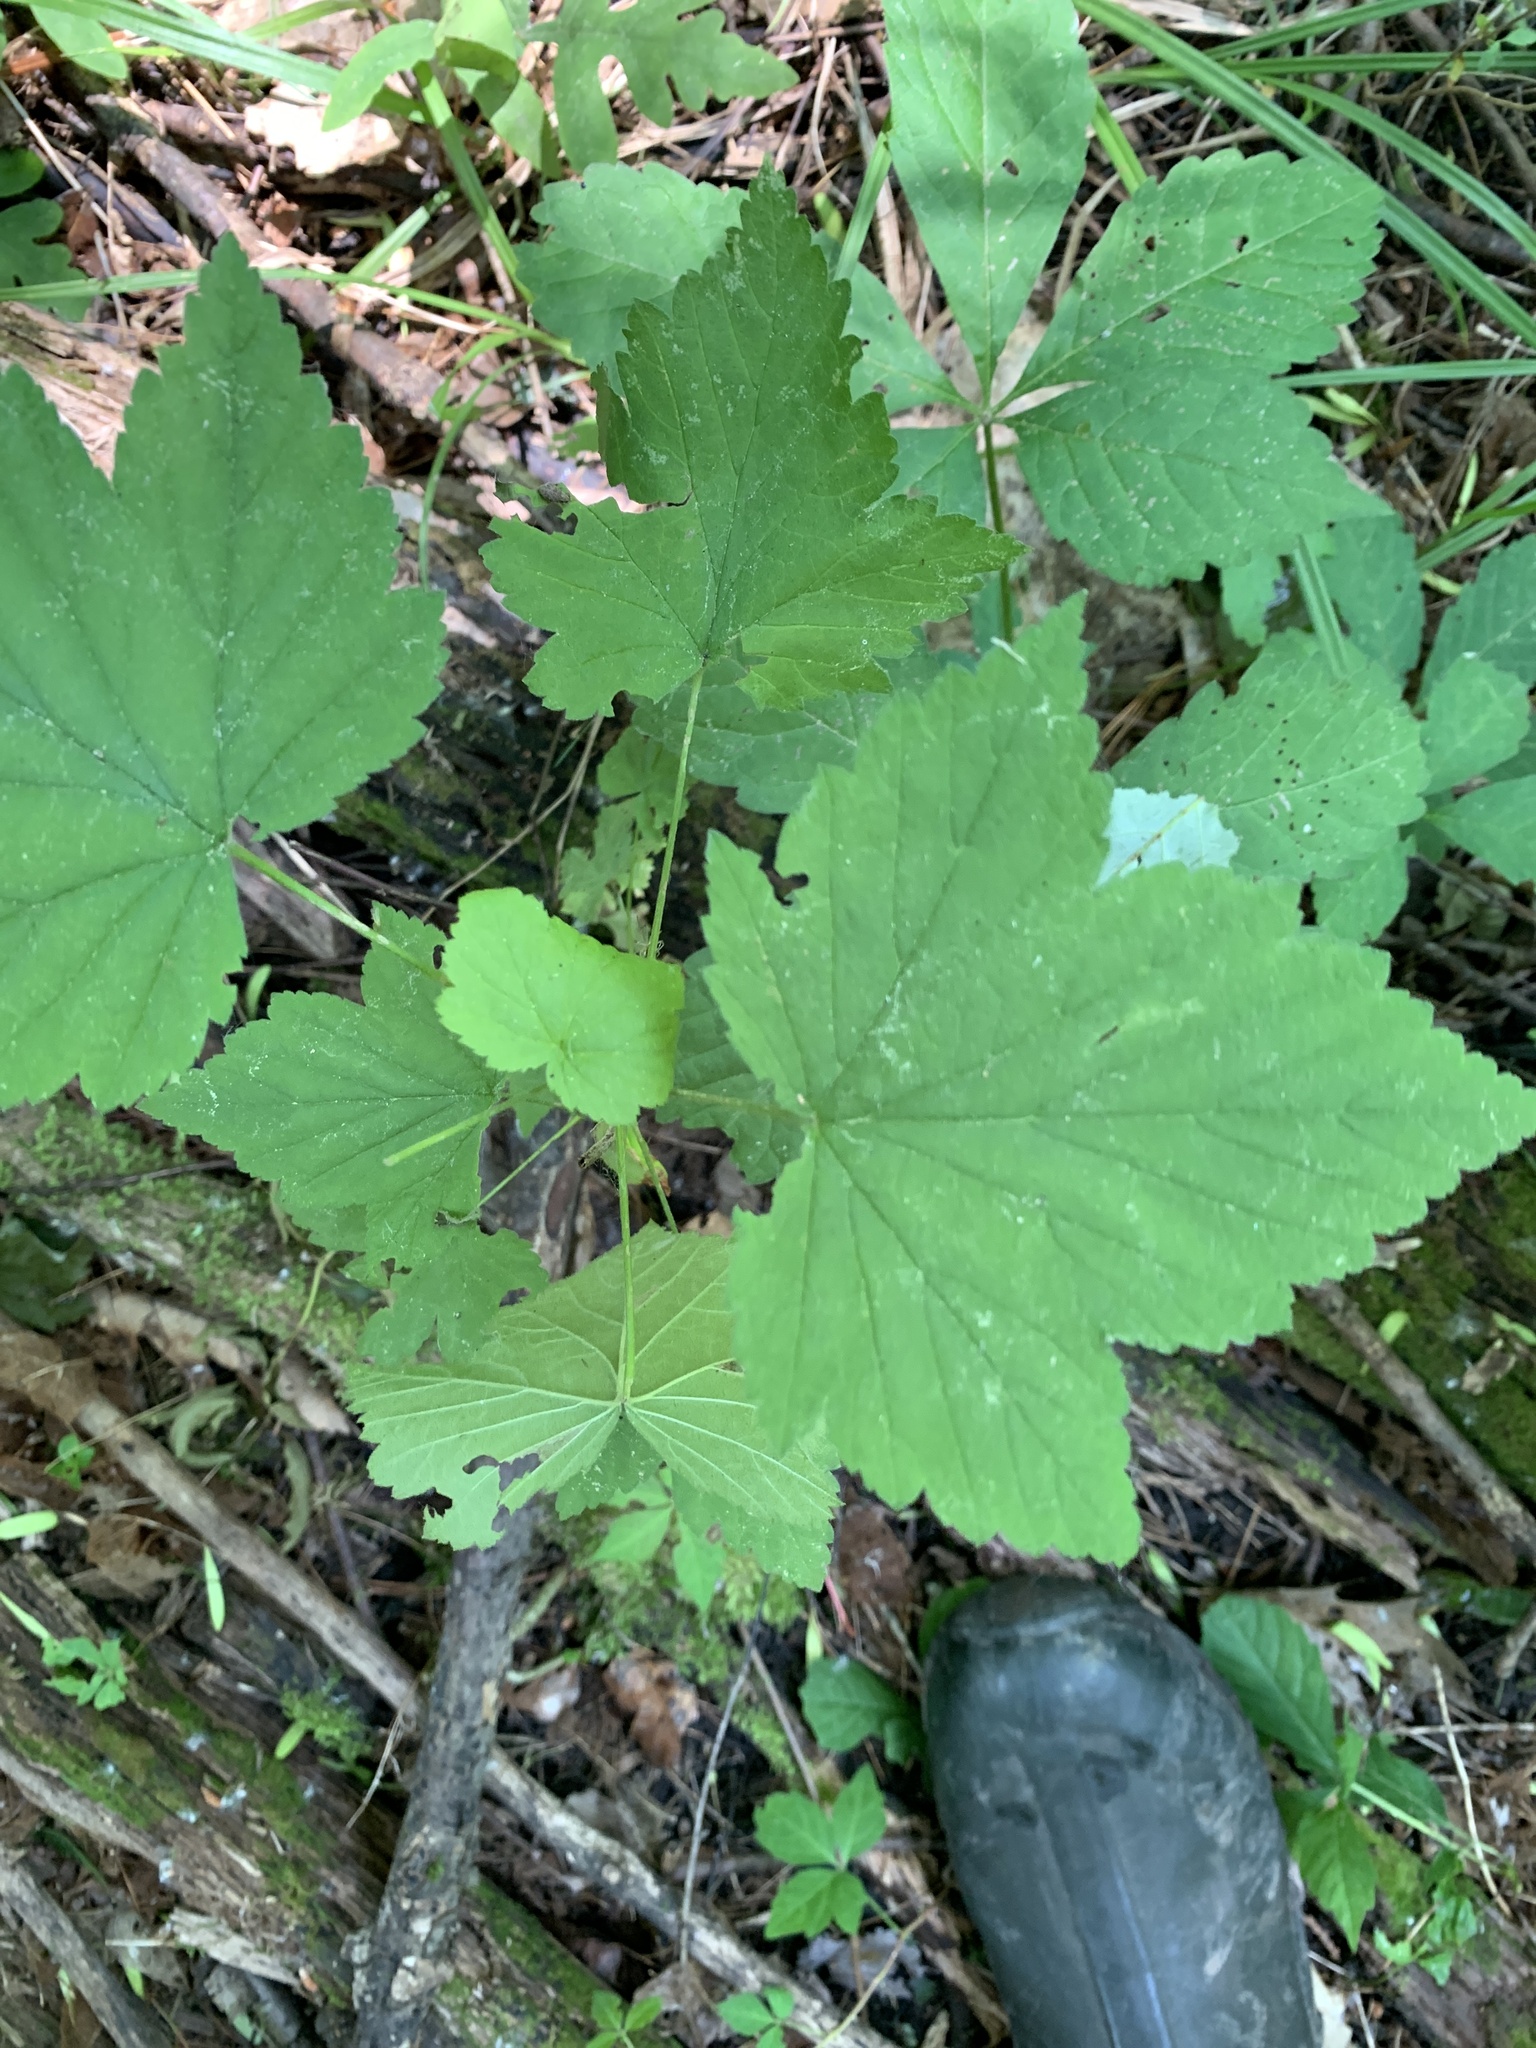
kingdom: Plantae
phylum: Tracheophyta
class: Magnoliopsida
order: Rosales
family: Rosaceae
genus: Rubus
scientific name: Rubus odoratus
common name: Purple-flowered raspberry
